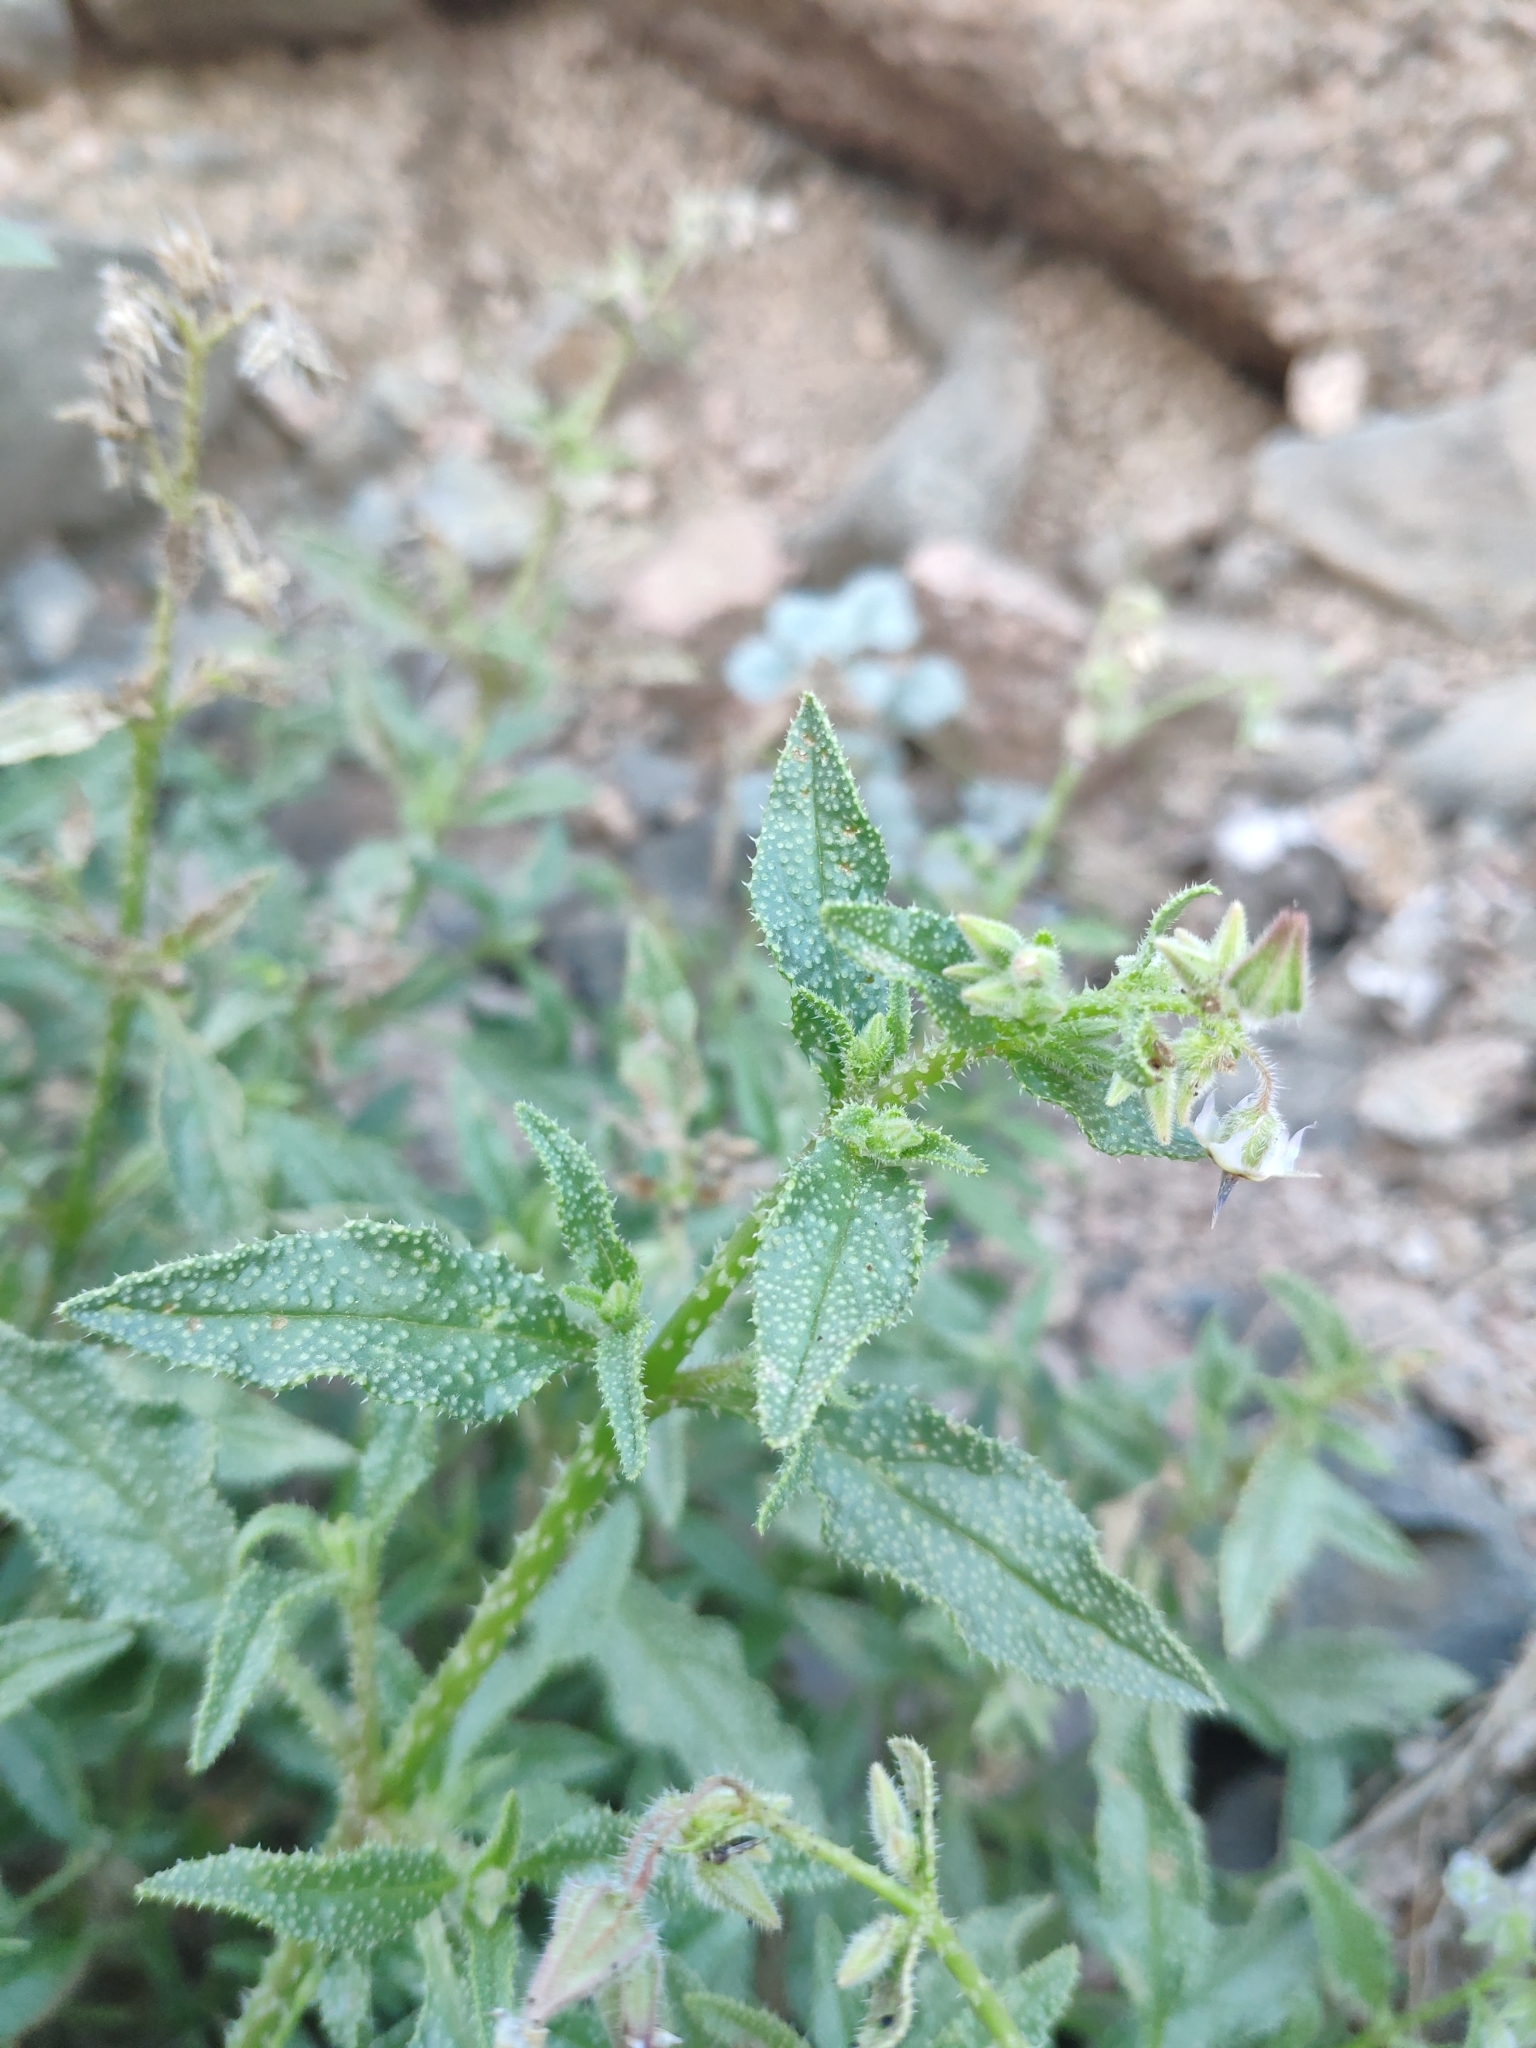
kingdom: Plantae
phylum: Tracheophyta
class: Magnoliopsida
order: Boraginales
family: Boraginaceae
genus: Trichodesma
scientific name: Trichodesma africanum
